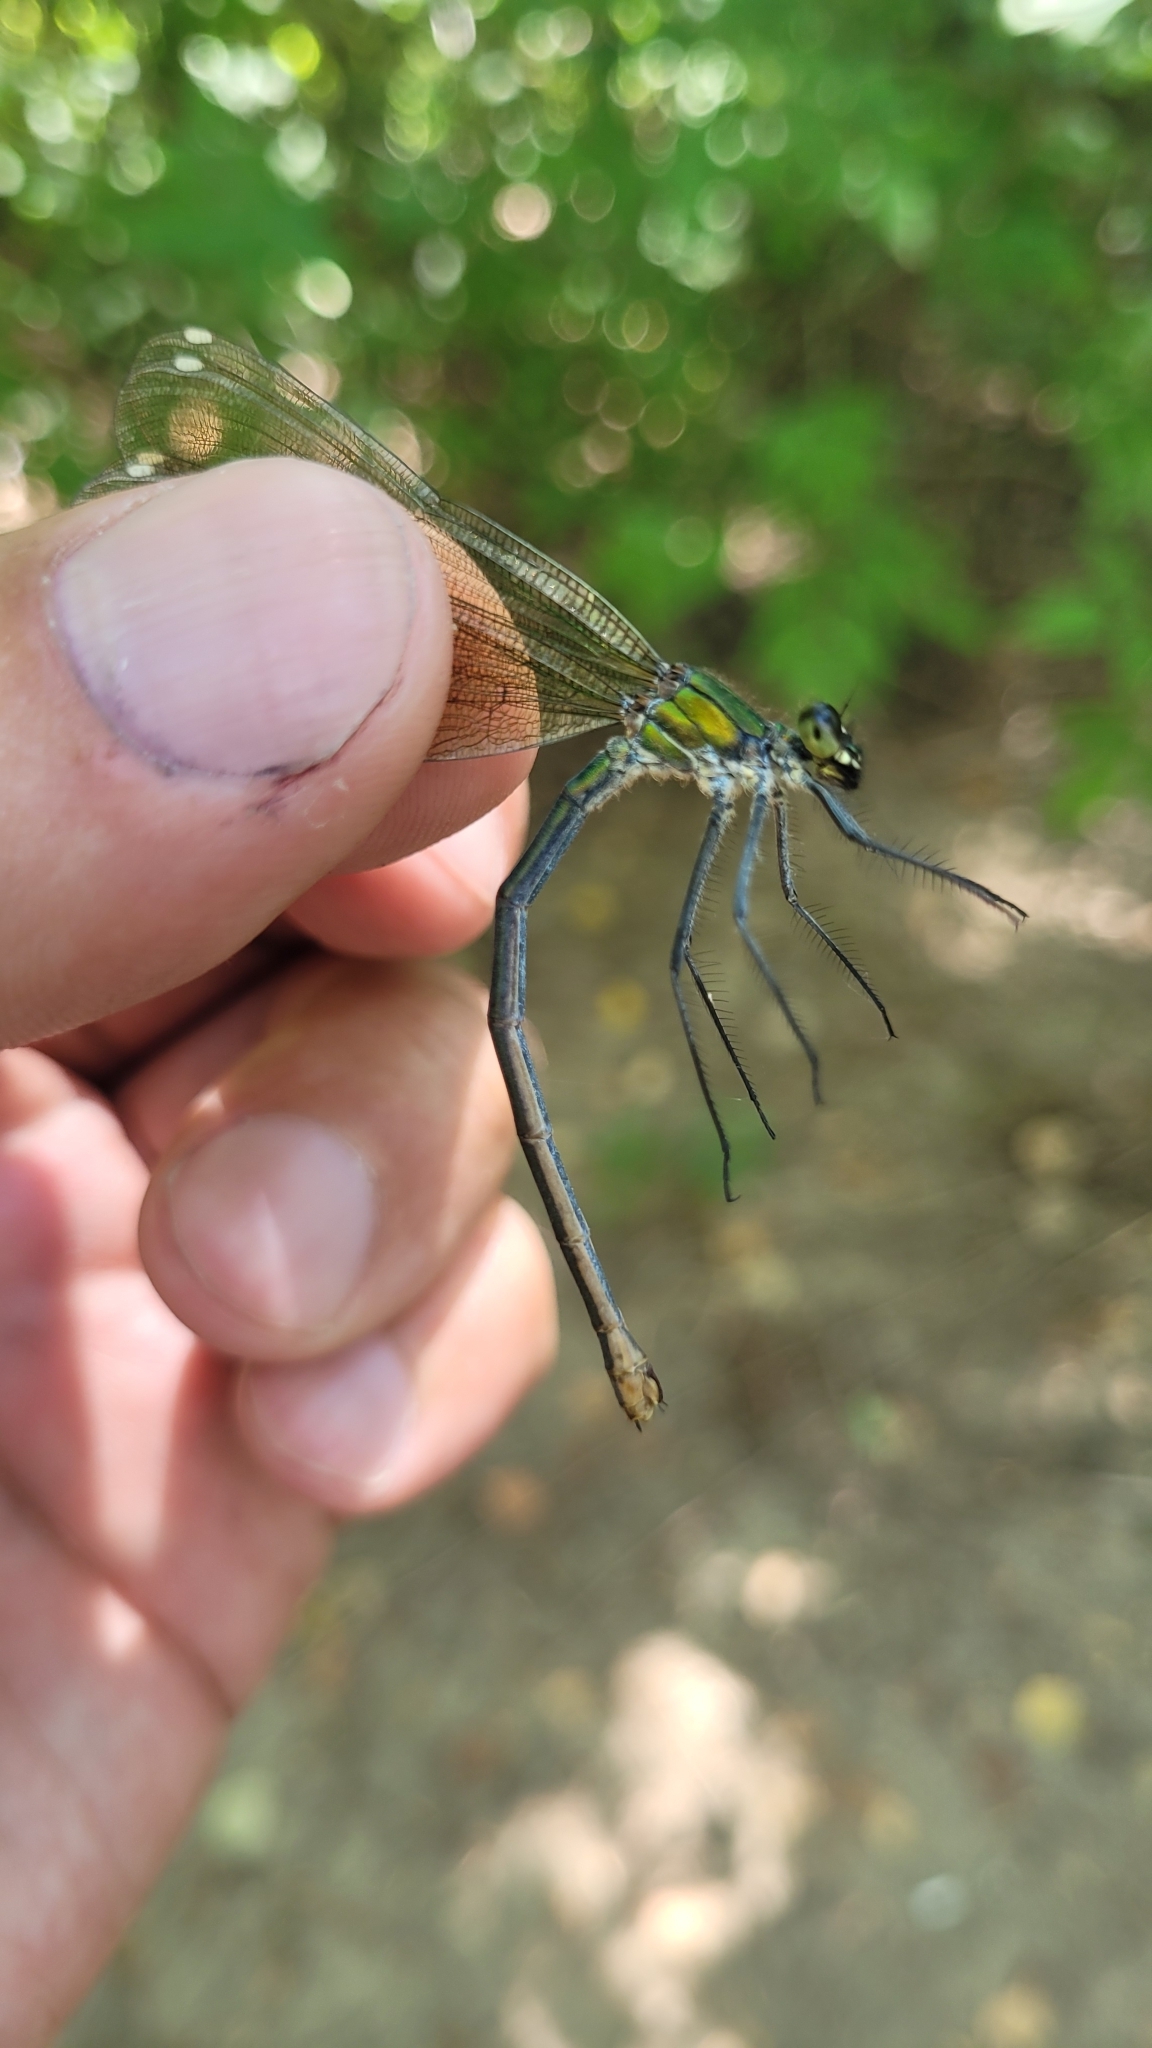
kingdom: Animalia
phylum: Arthropoda
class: Insecta
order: Odonata
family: Calopterygidae
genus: Calopteryx
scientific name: Calopteryx splendens
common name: Banded demoiselle
